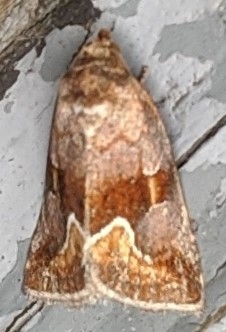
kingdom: Animalia
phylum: Arthropoda
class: Insecta
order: Lepidoptera
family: Noctuidae
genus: Deltote
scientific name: Deltote bellicula
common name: Bog glyph
